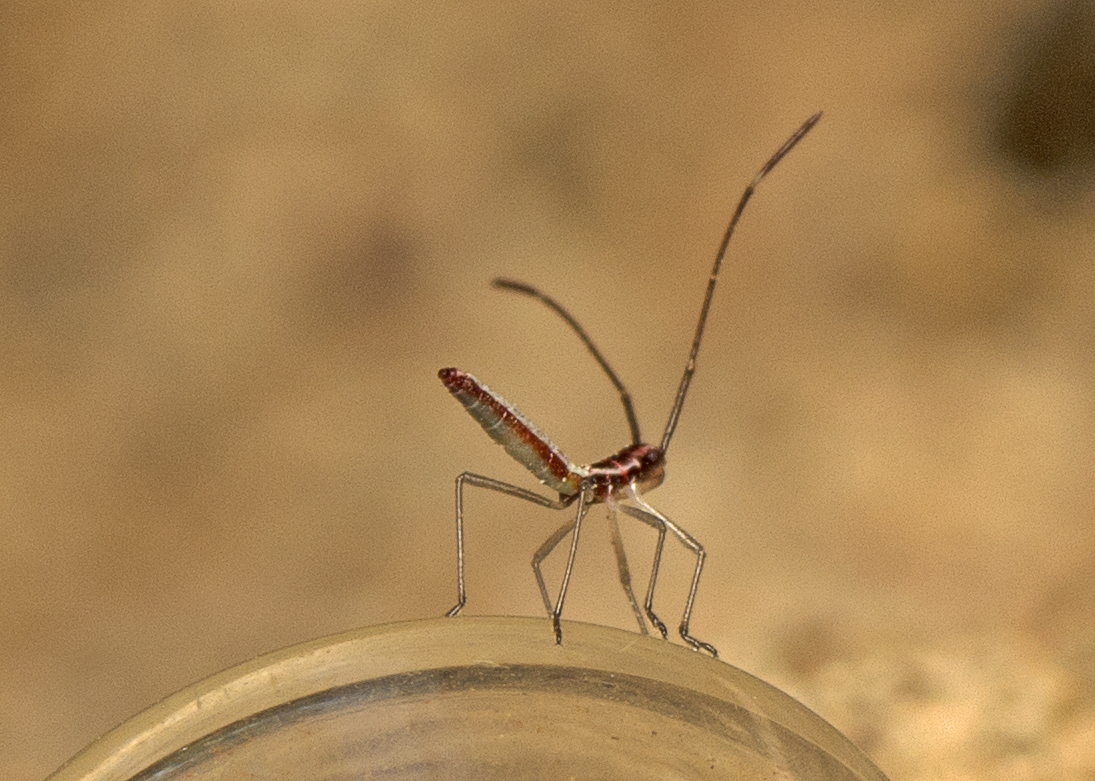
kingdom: Animalia
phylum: Arthropoda
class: Insecta
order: Hemiptera
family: Alydidae
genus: Mutusca
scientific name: Mutusca brevicornis
